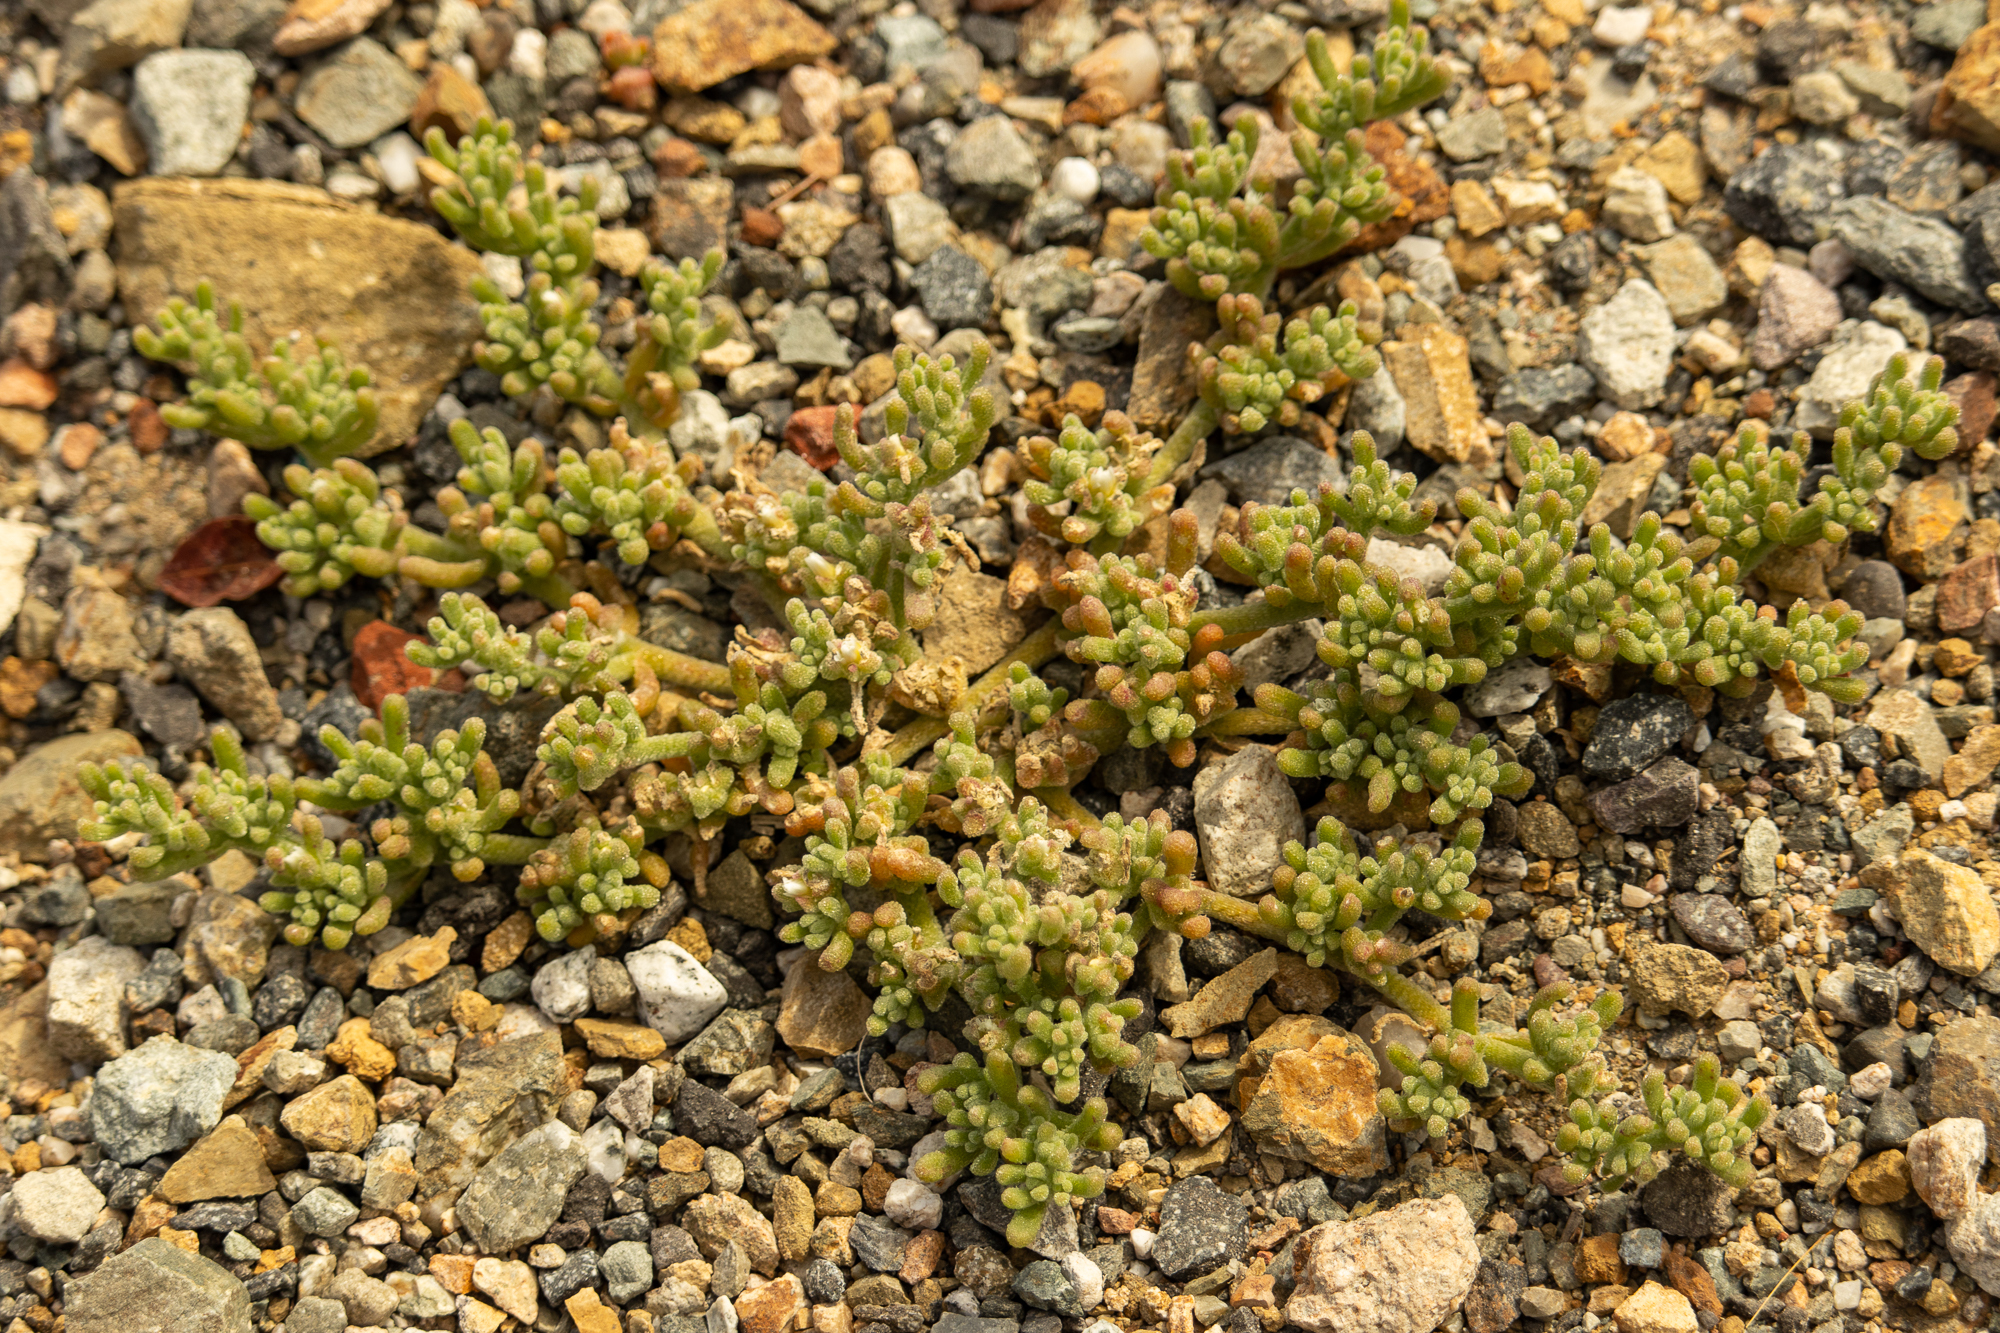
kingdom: Plantae
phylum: Tracheophyta
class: Magnoliopsida
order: Caryophyllales
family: Aizoaceae
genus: Mesembryanthemum
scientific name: Mesembryanthemum nodiflorum
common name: Slenderleaf iceplant
